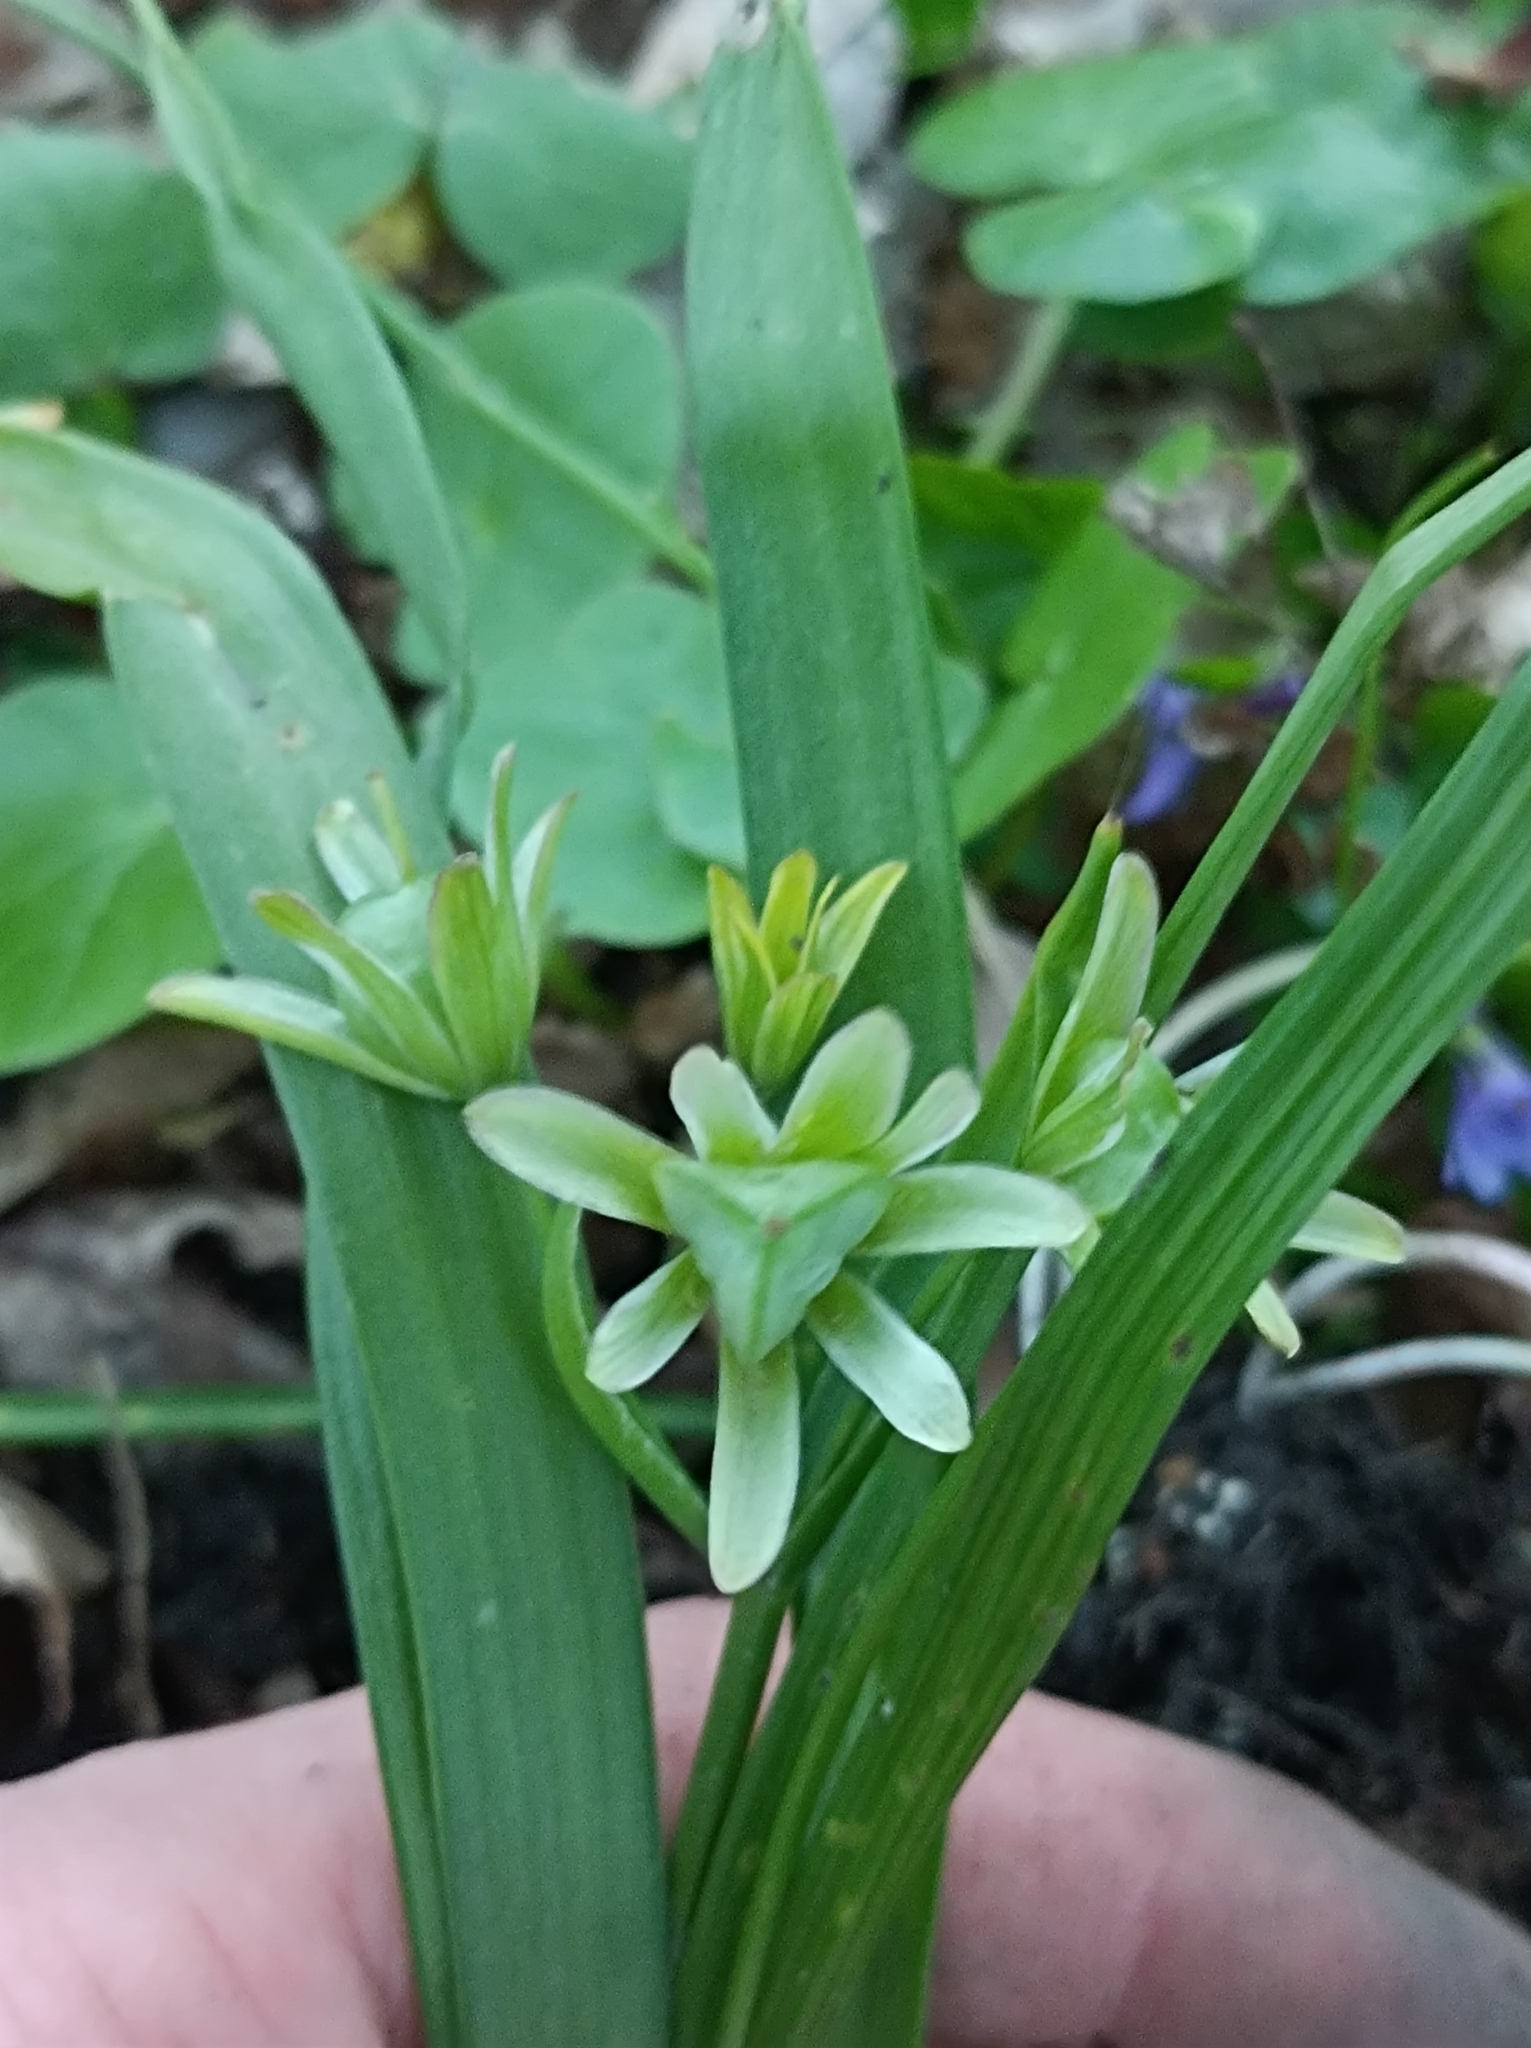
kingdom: Plantae
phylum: Tracheophyta
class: Liliopsida
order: Liliales
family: Liliaceae
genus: Gagea
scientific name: Gagea lutea
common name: Yellow star-of-bethlehem
